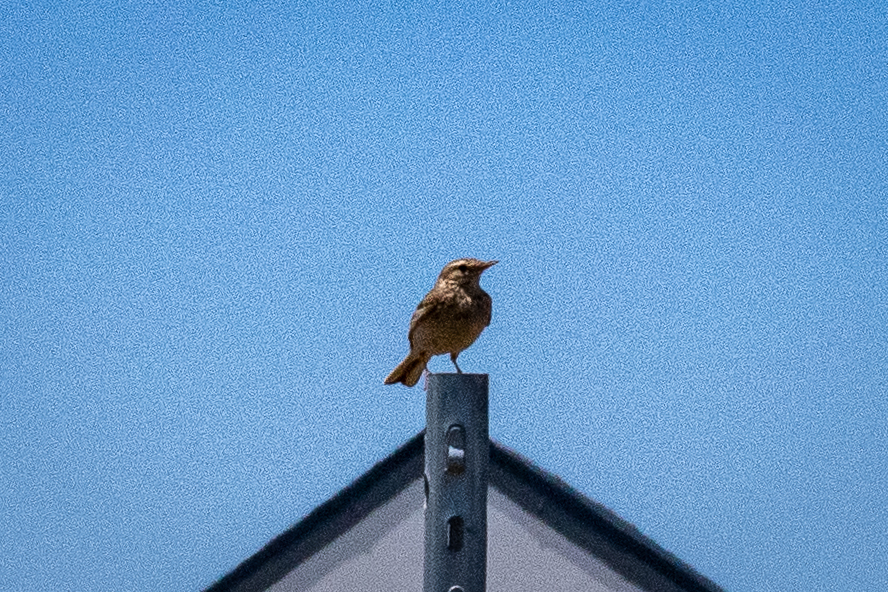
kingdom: Animalia
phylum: Chordata
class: Aves
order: Passeriformes
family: Alaudidae
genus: Galerida
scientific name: Galerida magnirostris
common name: Large-billed lark
